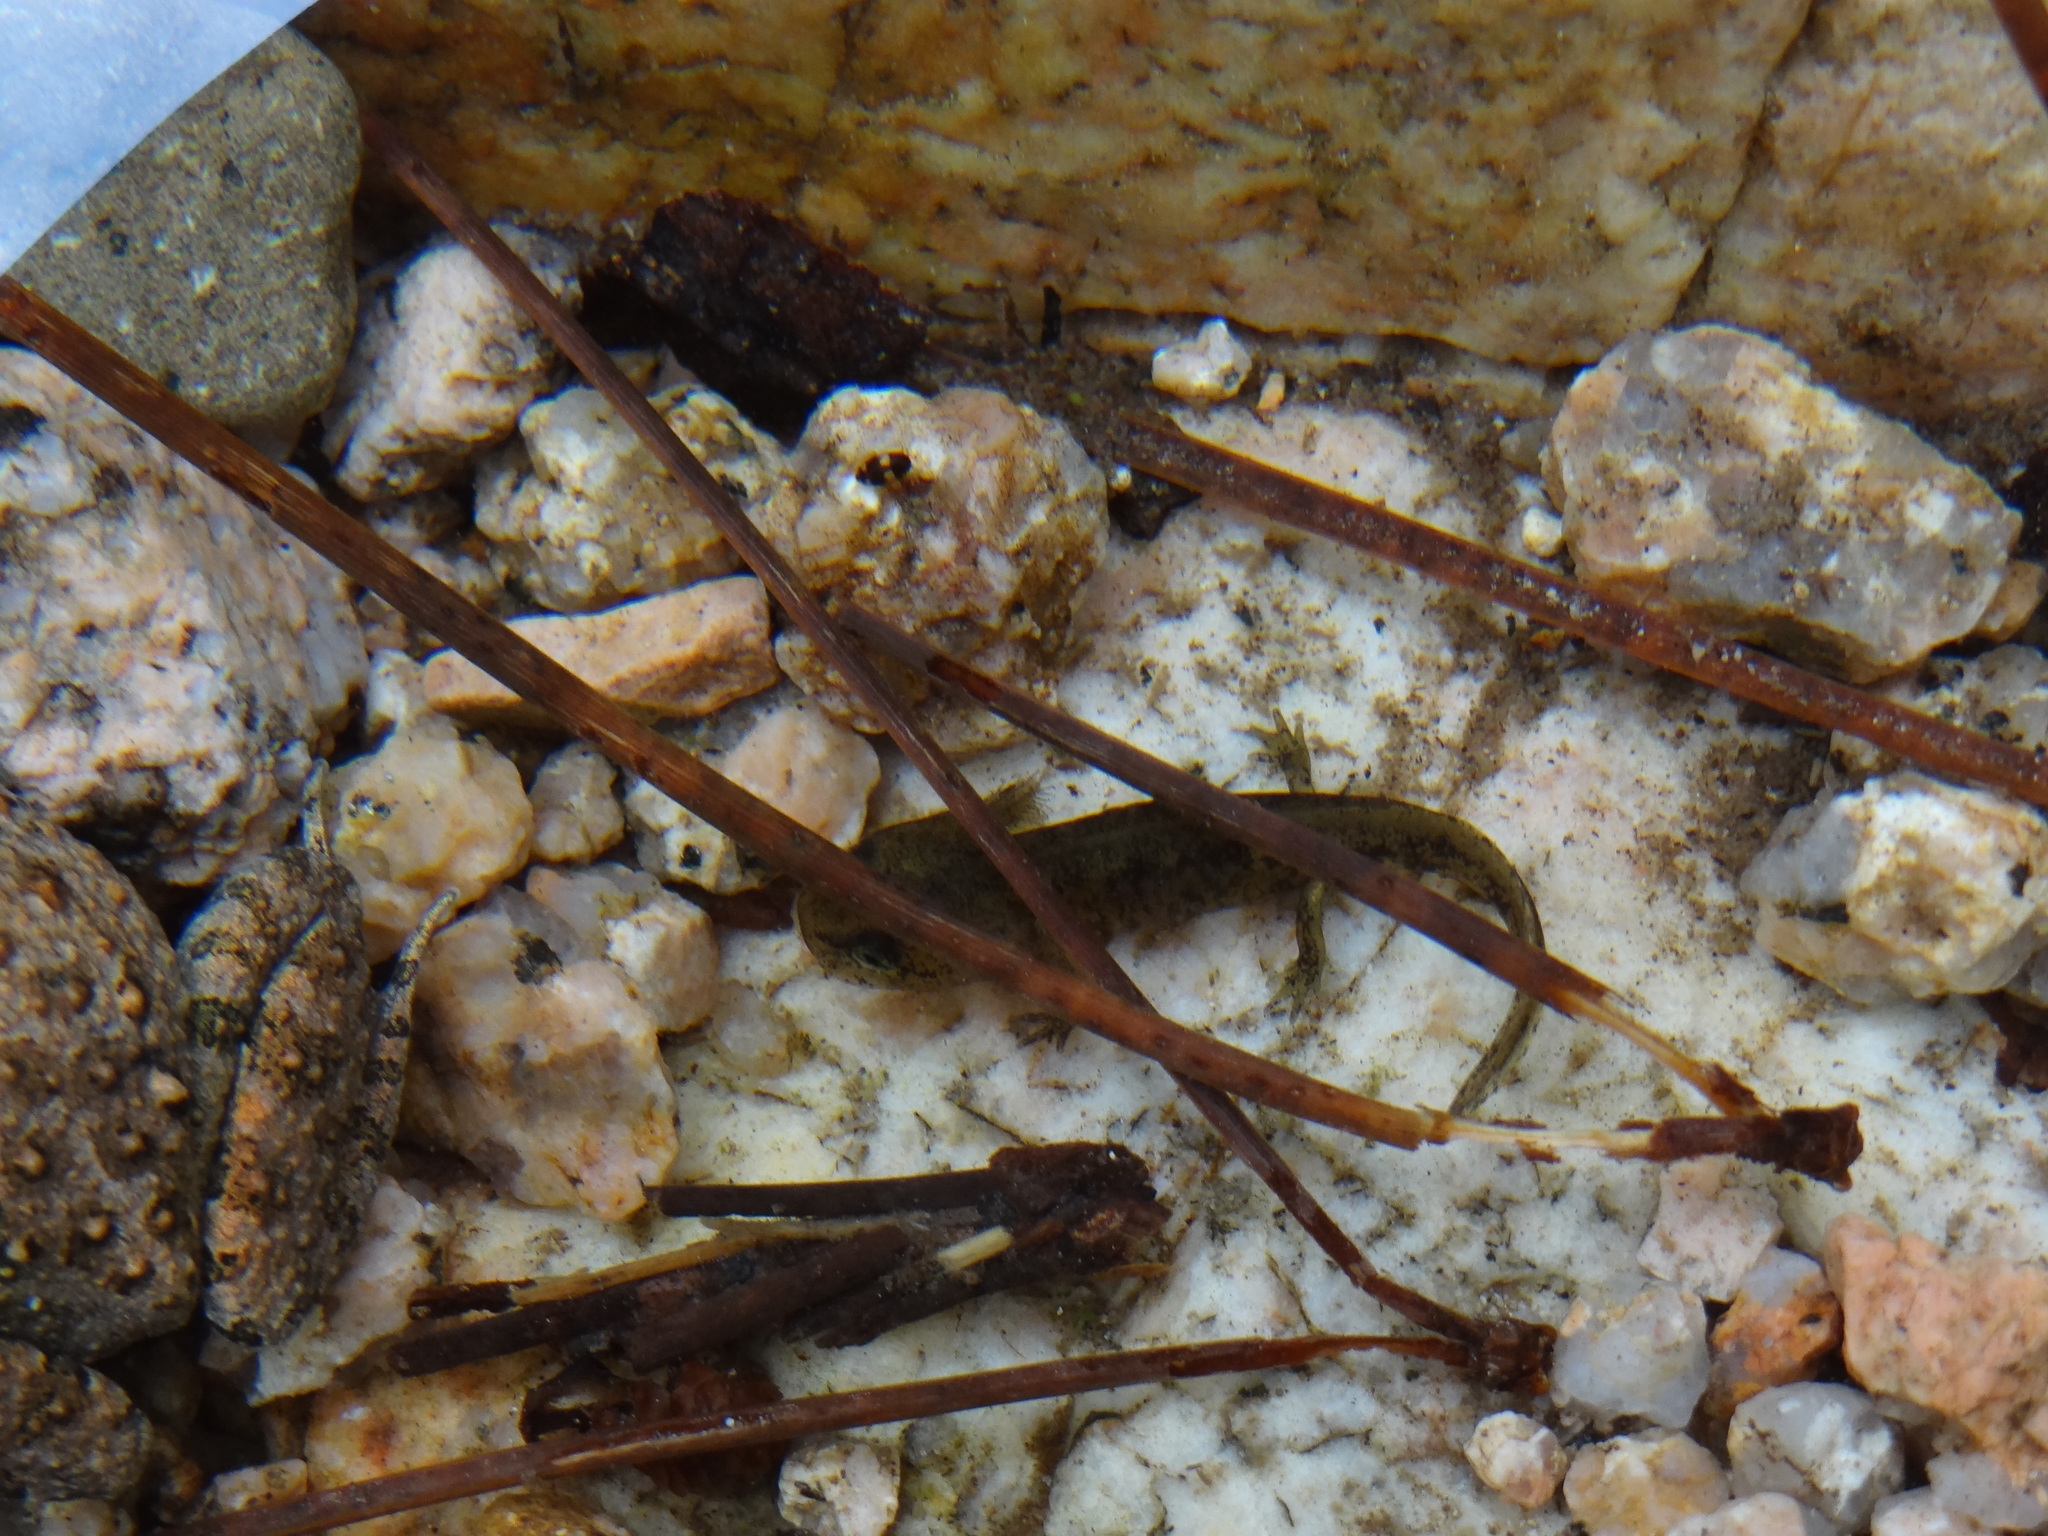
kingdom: Animalia
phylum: Chordata
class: Amphibia
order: Caudata
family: Salamandridae
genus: Salamandra
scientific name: Salamandra corsica
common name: Corsican fire salamander
